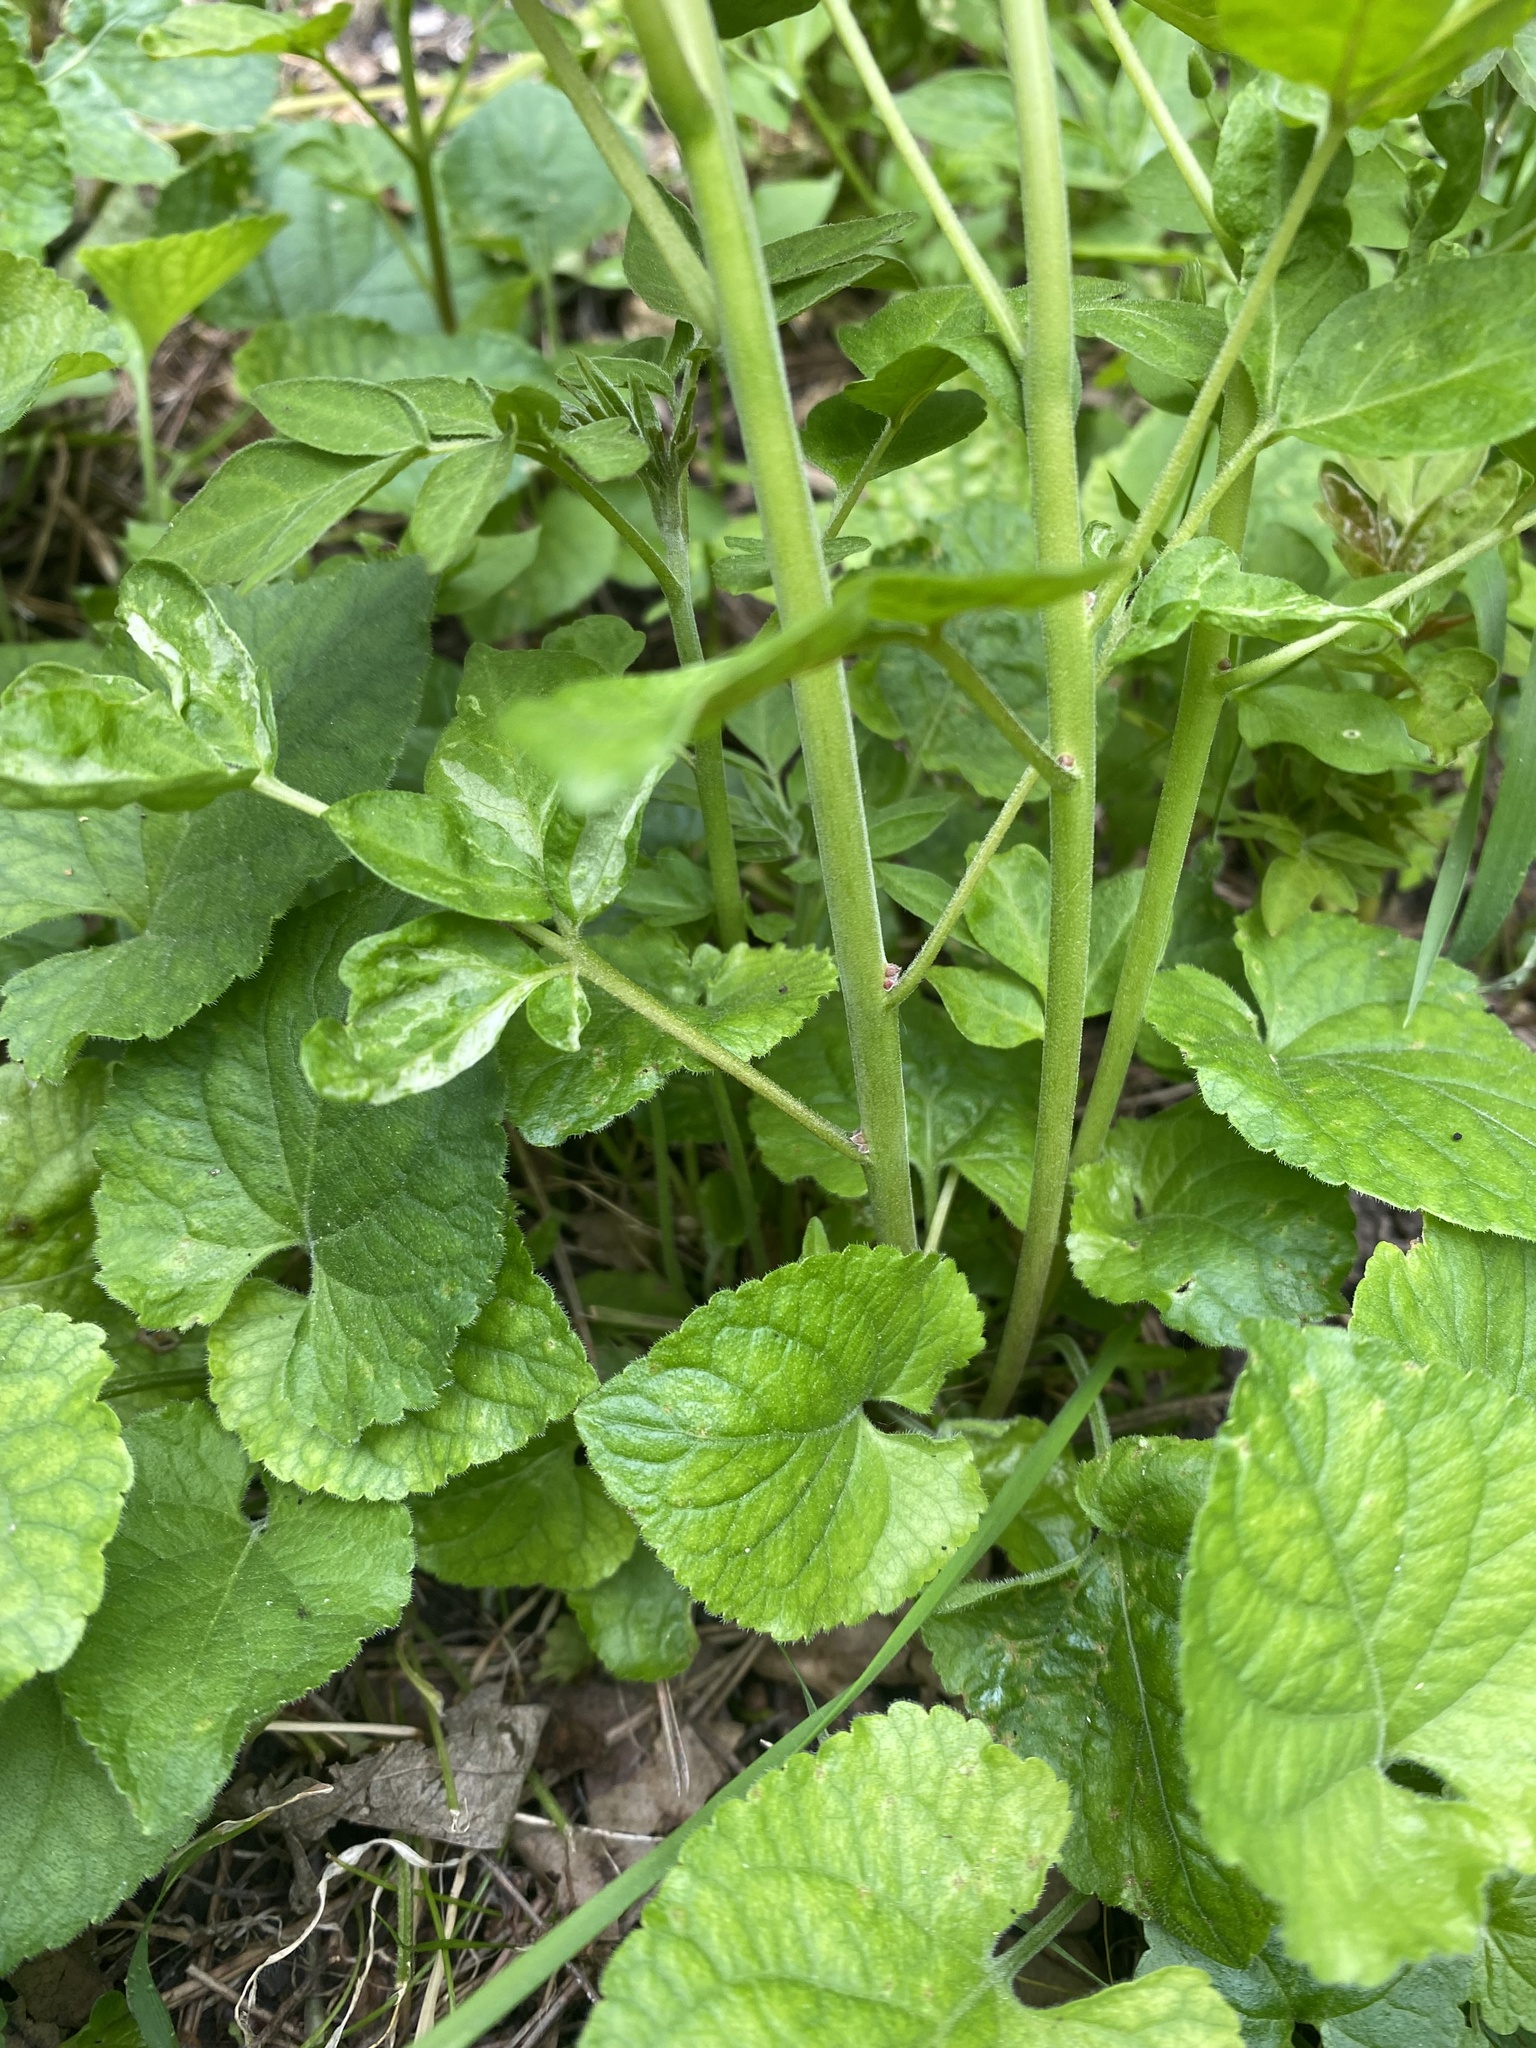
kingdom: Plantae
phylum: Tracheophyta
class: Magnoliopsida
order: Sapindales
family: Simaroubaceae
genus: Ailanthus
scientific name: Ailanthus altissima
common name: Tree-of-heaven
